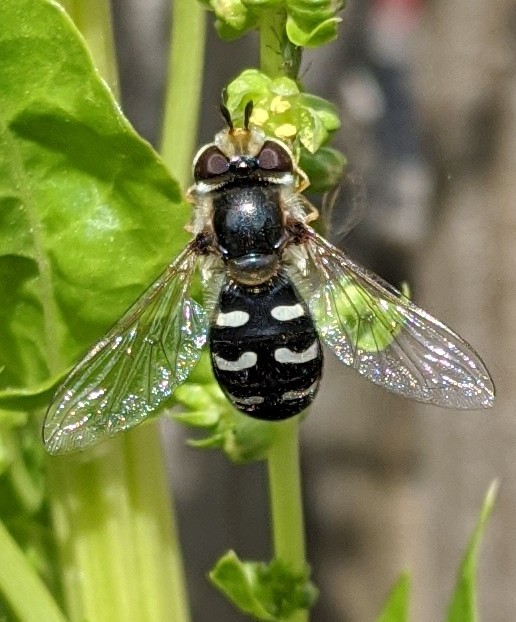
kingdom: Animalia
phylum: Arthropoda
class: Insecta
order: Diptera
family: Syrphidae
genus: Scaeva
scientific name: Scaeva pyrastri
